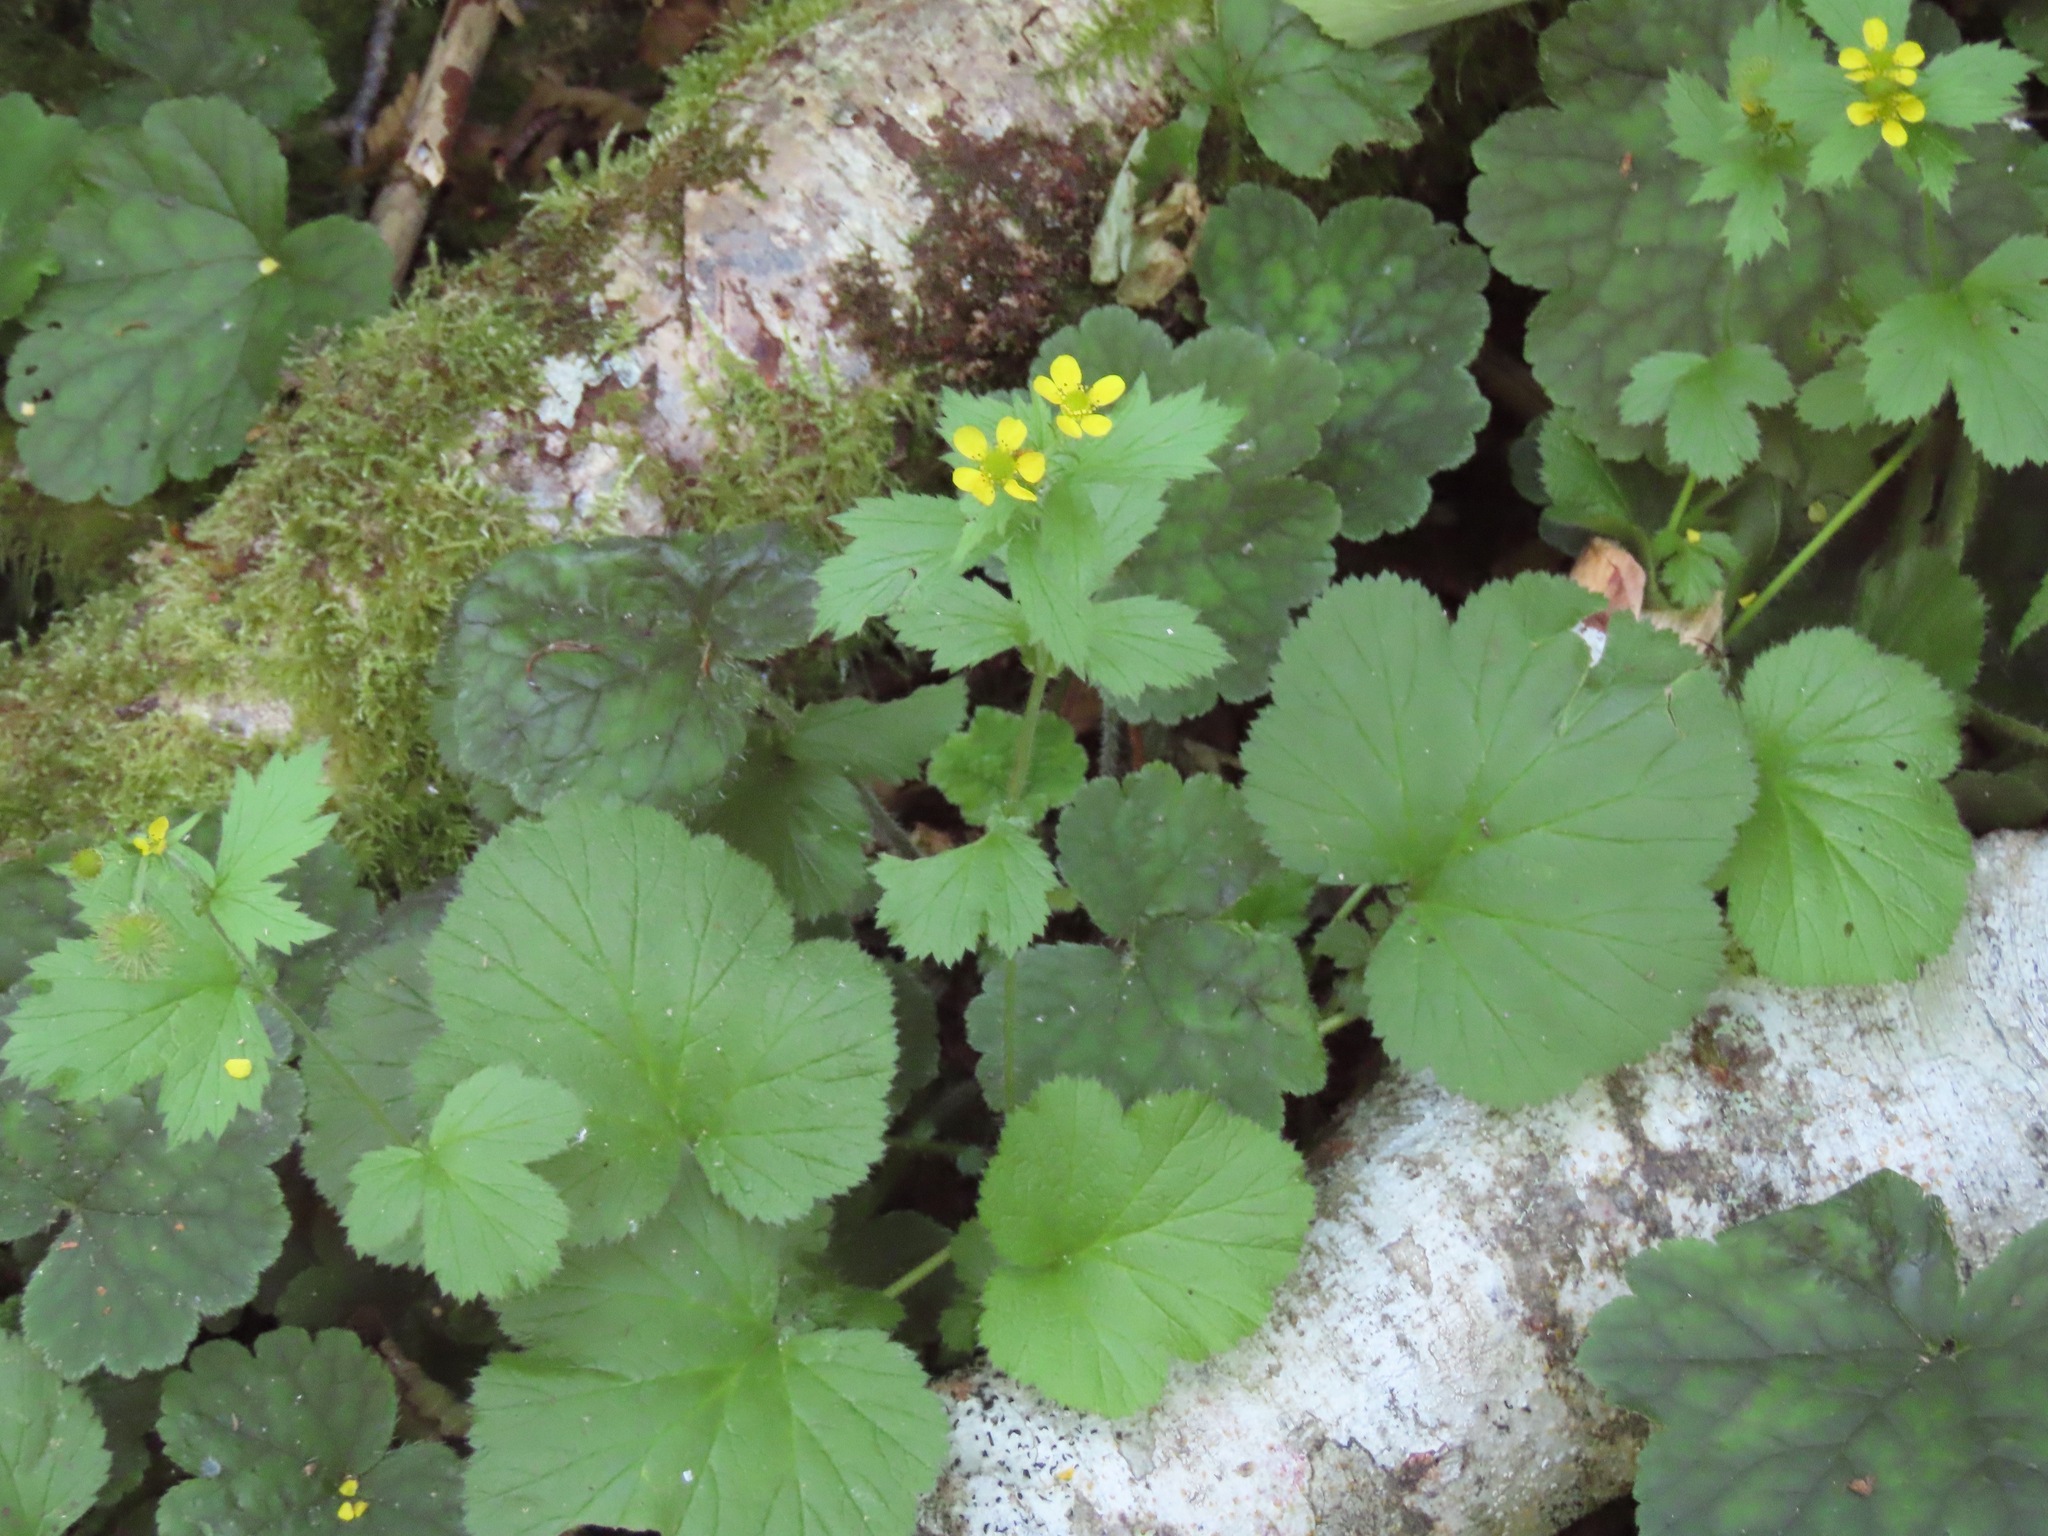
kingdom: Plantae
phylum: Tracheophyta
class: Magnoliopsida
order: Rosales
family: Rosaceae
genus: Geum
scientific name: Geum macrophyllum
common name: Large-leaved avens
